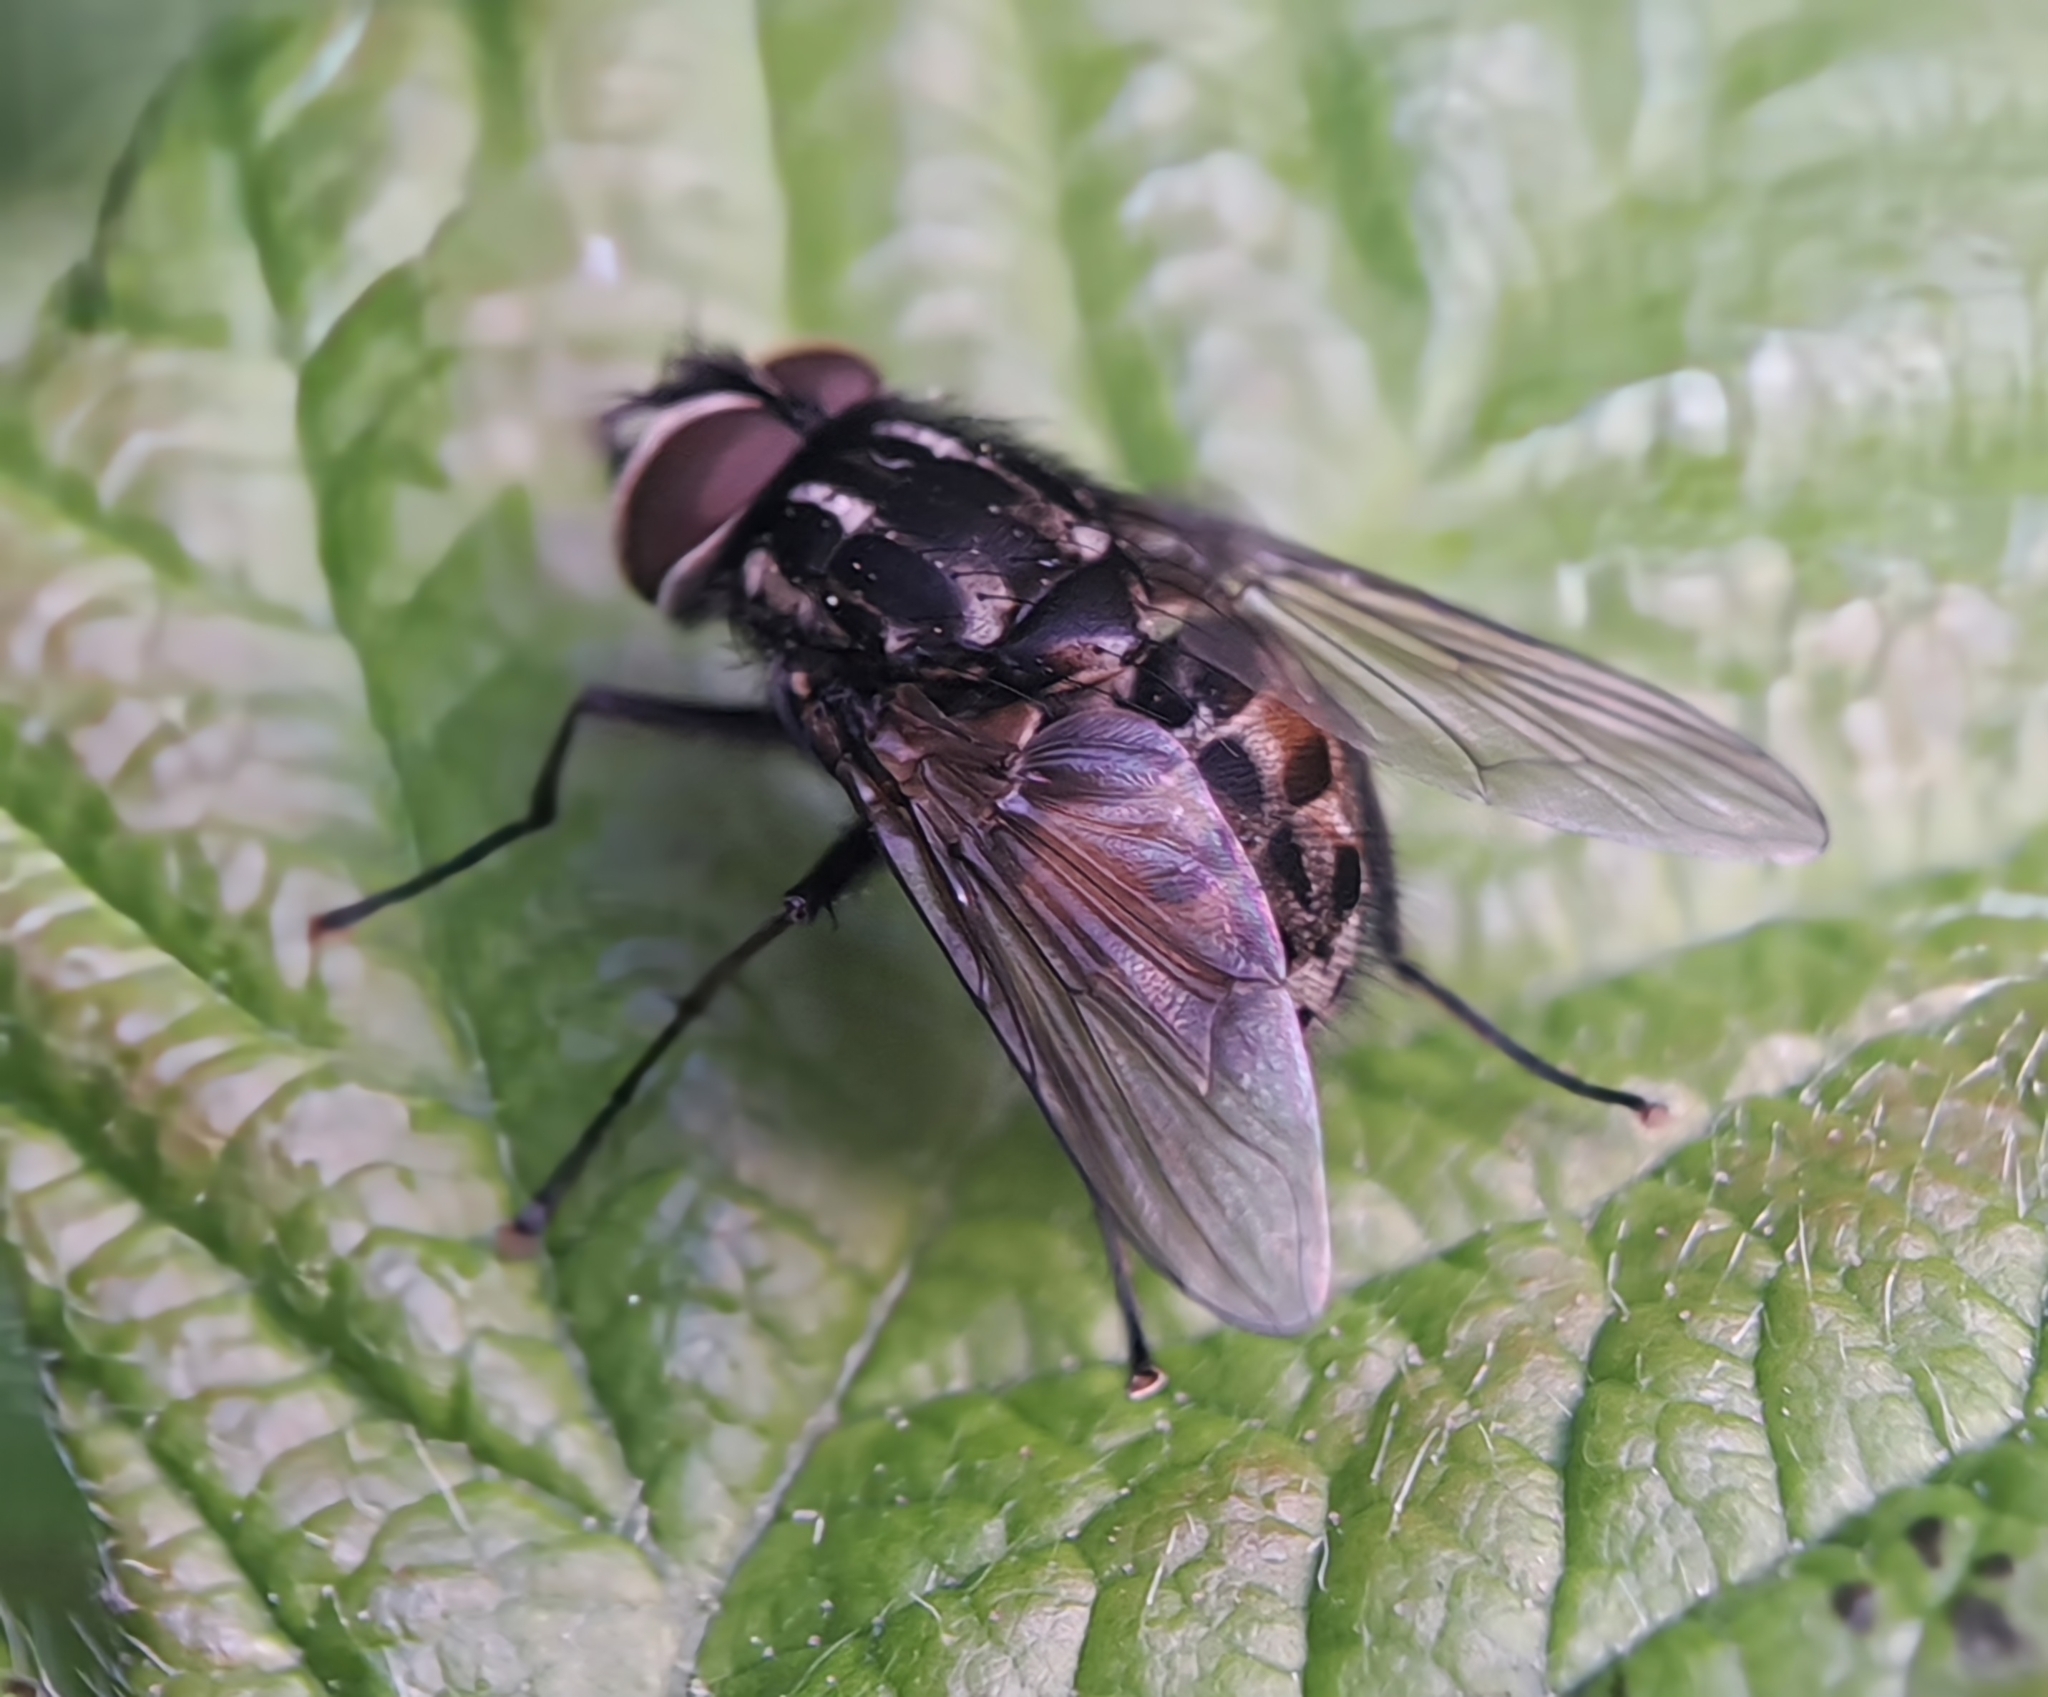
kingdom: Animalia
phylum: Arthropoda
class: Insecta
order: Diptera
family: Muscidae
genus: Graphomya
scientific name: Graphomya maculata
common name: Muscid fly
